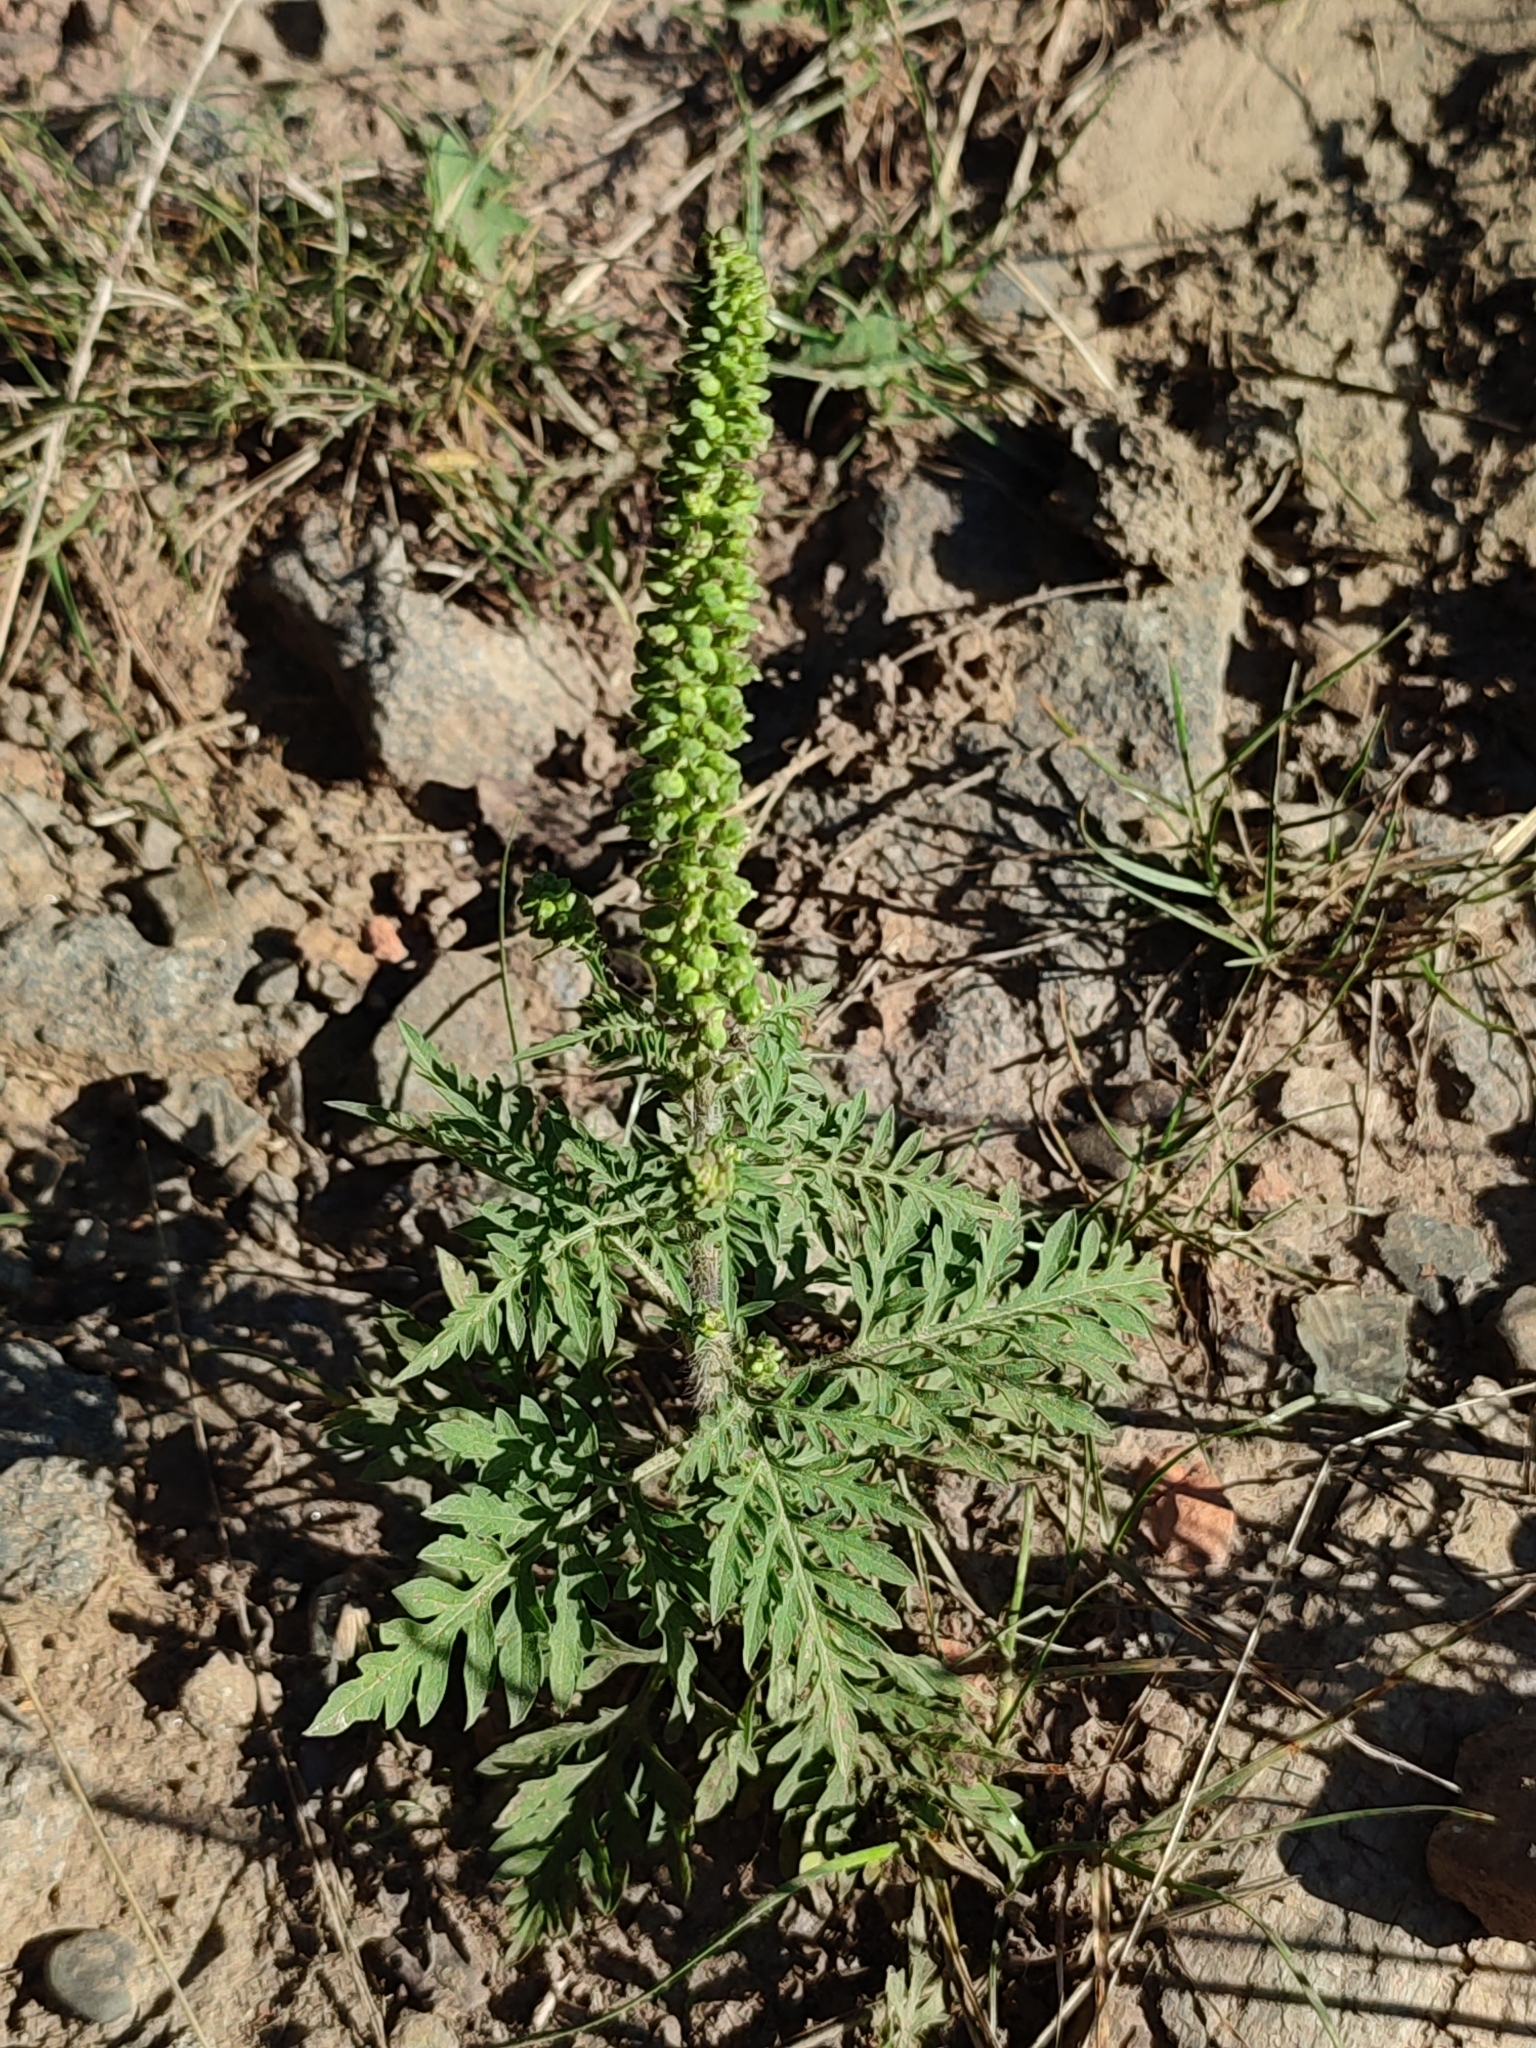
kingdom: Plantae
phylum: Tracheophyta
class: Magnoliopsida
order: Asterales
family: Asteraceae
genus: Ambrosia
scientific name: Ambrosia artemisiifolia
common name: Annual ragweed
